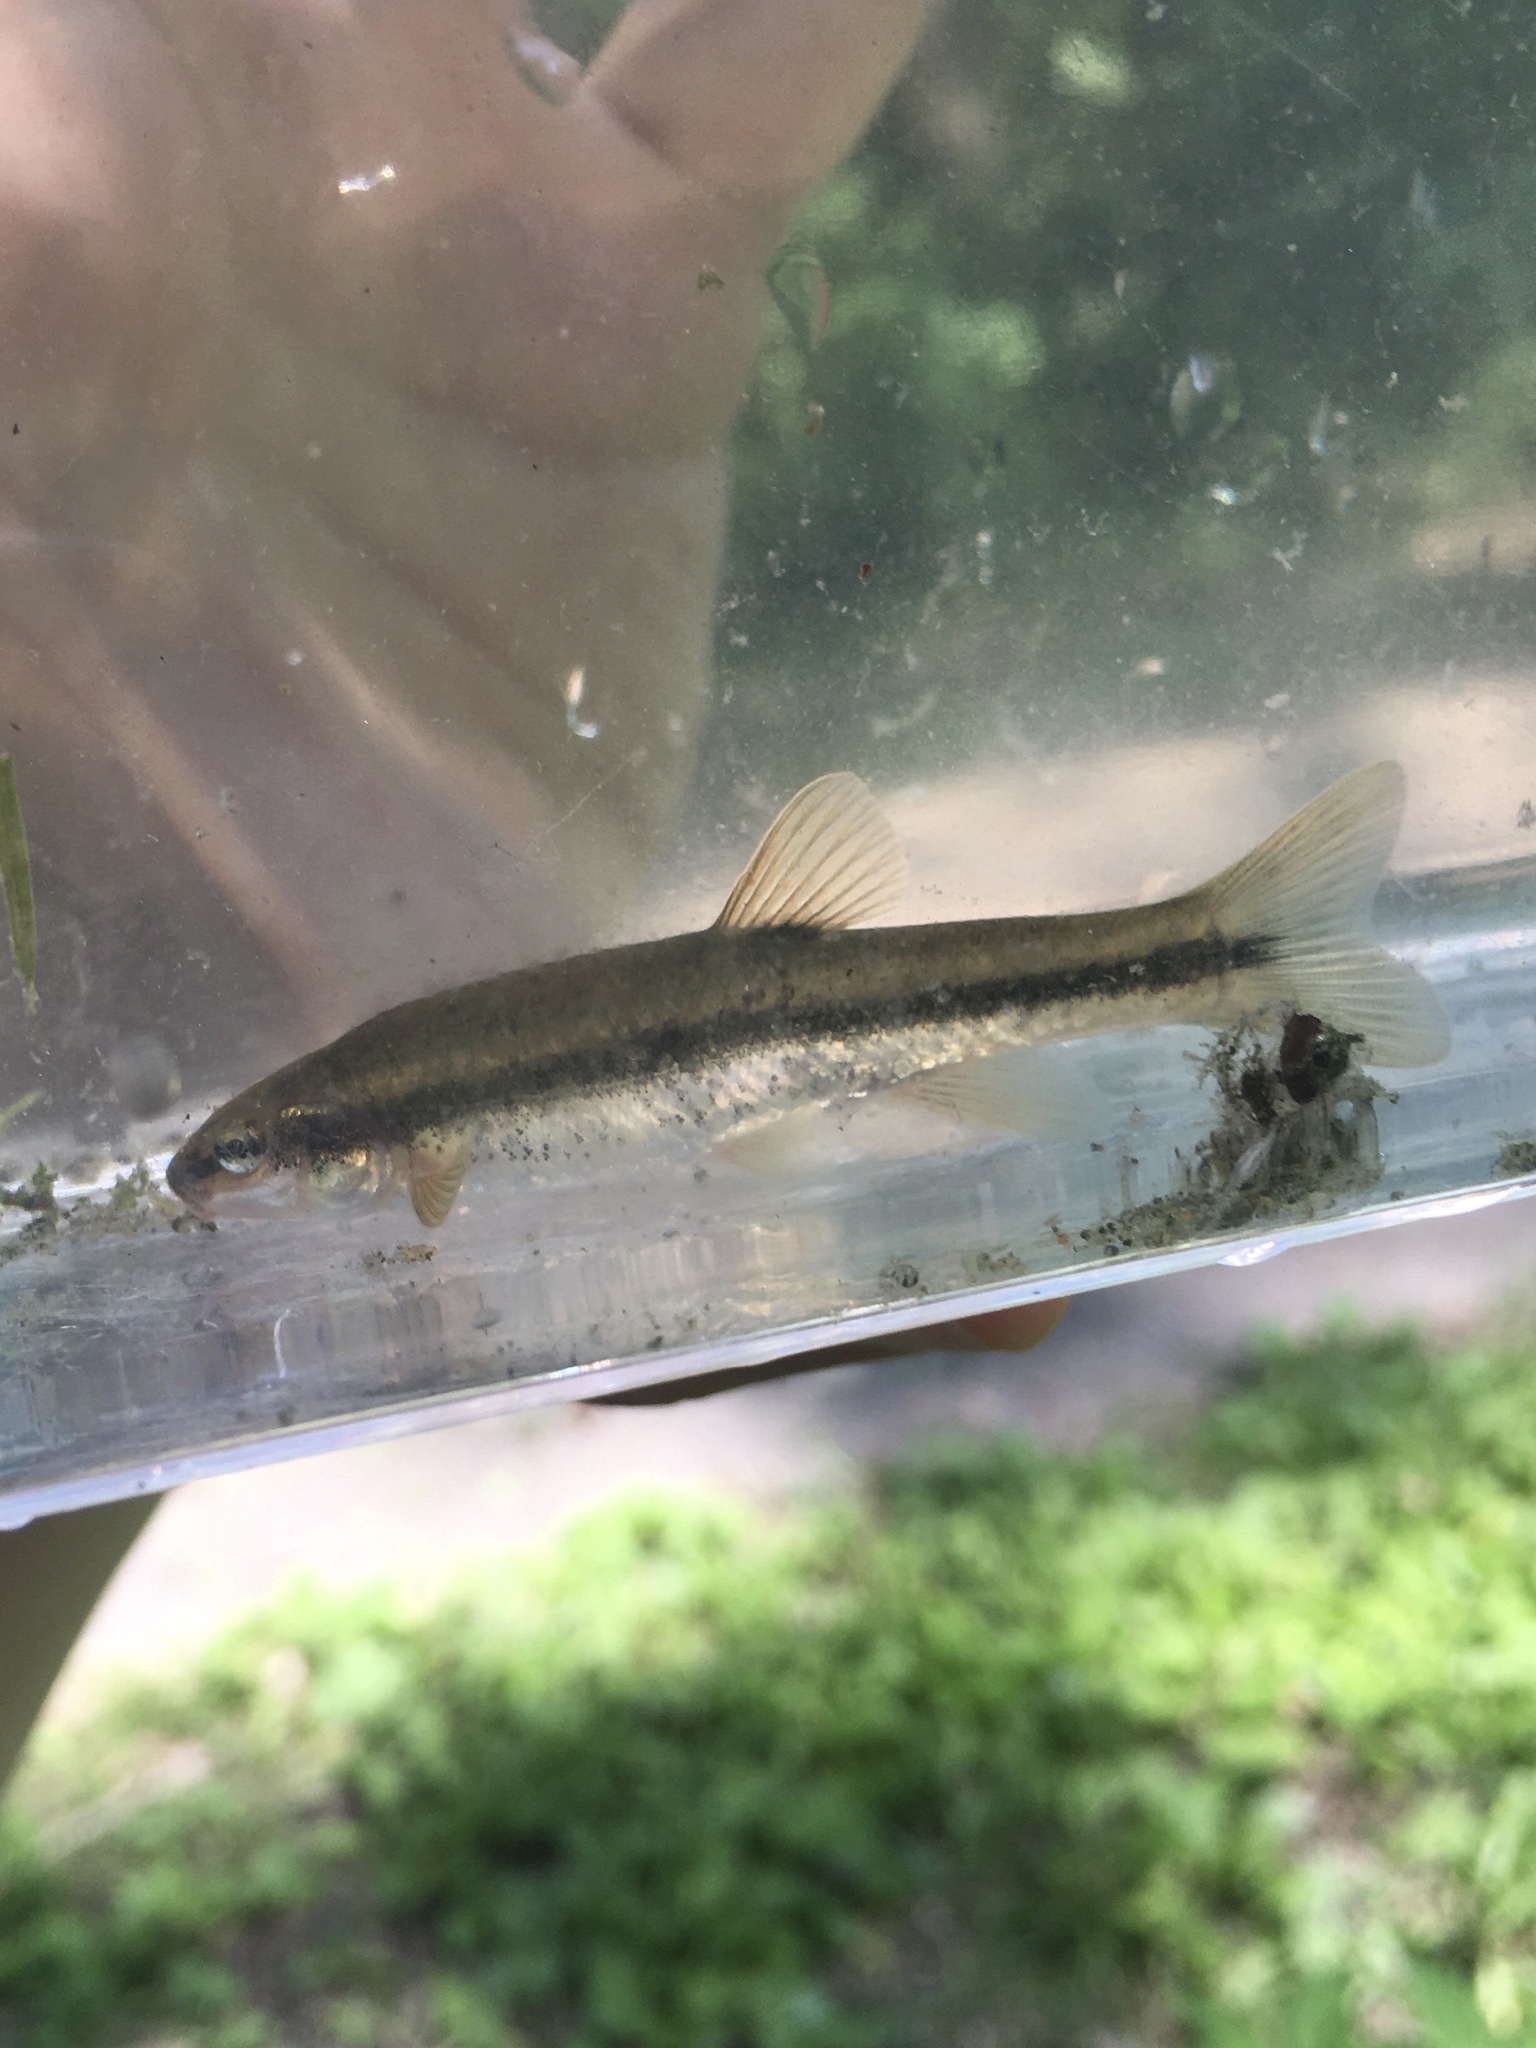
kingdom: Animalia
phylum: Chordata
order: Cypriniformes
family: Cyprinidae
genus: Rhinichthys
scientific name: Rhinichthys obtusus
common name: Western blacknose dace
